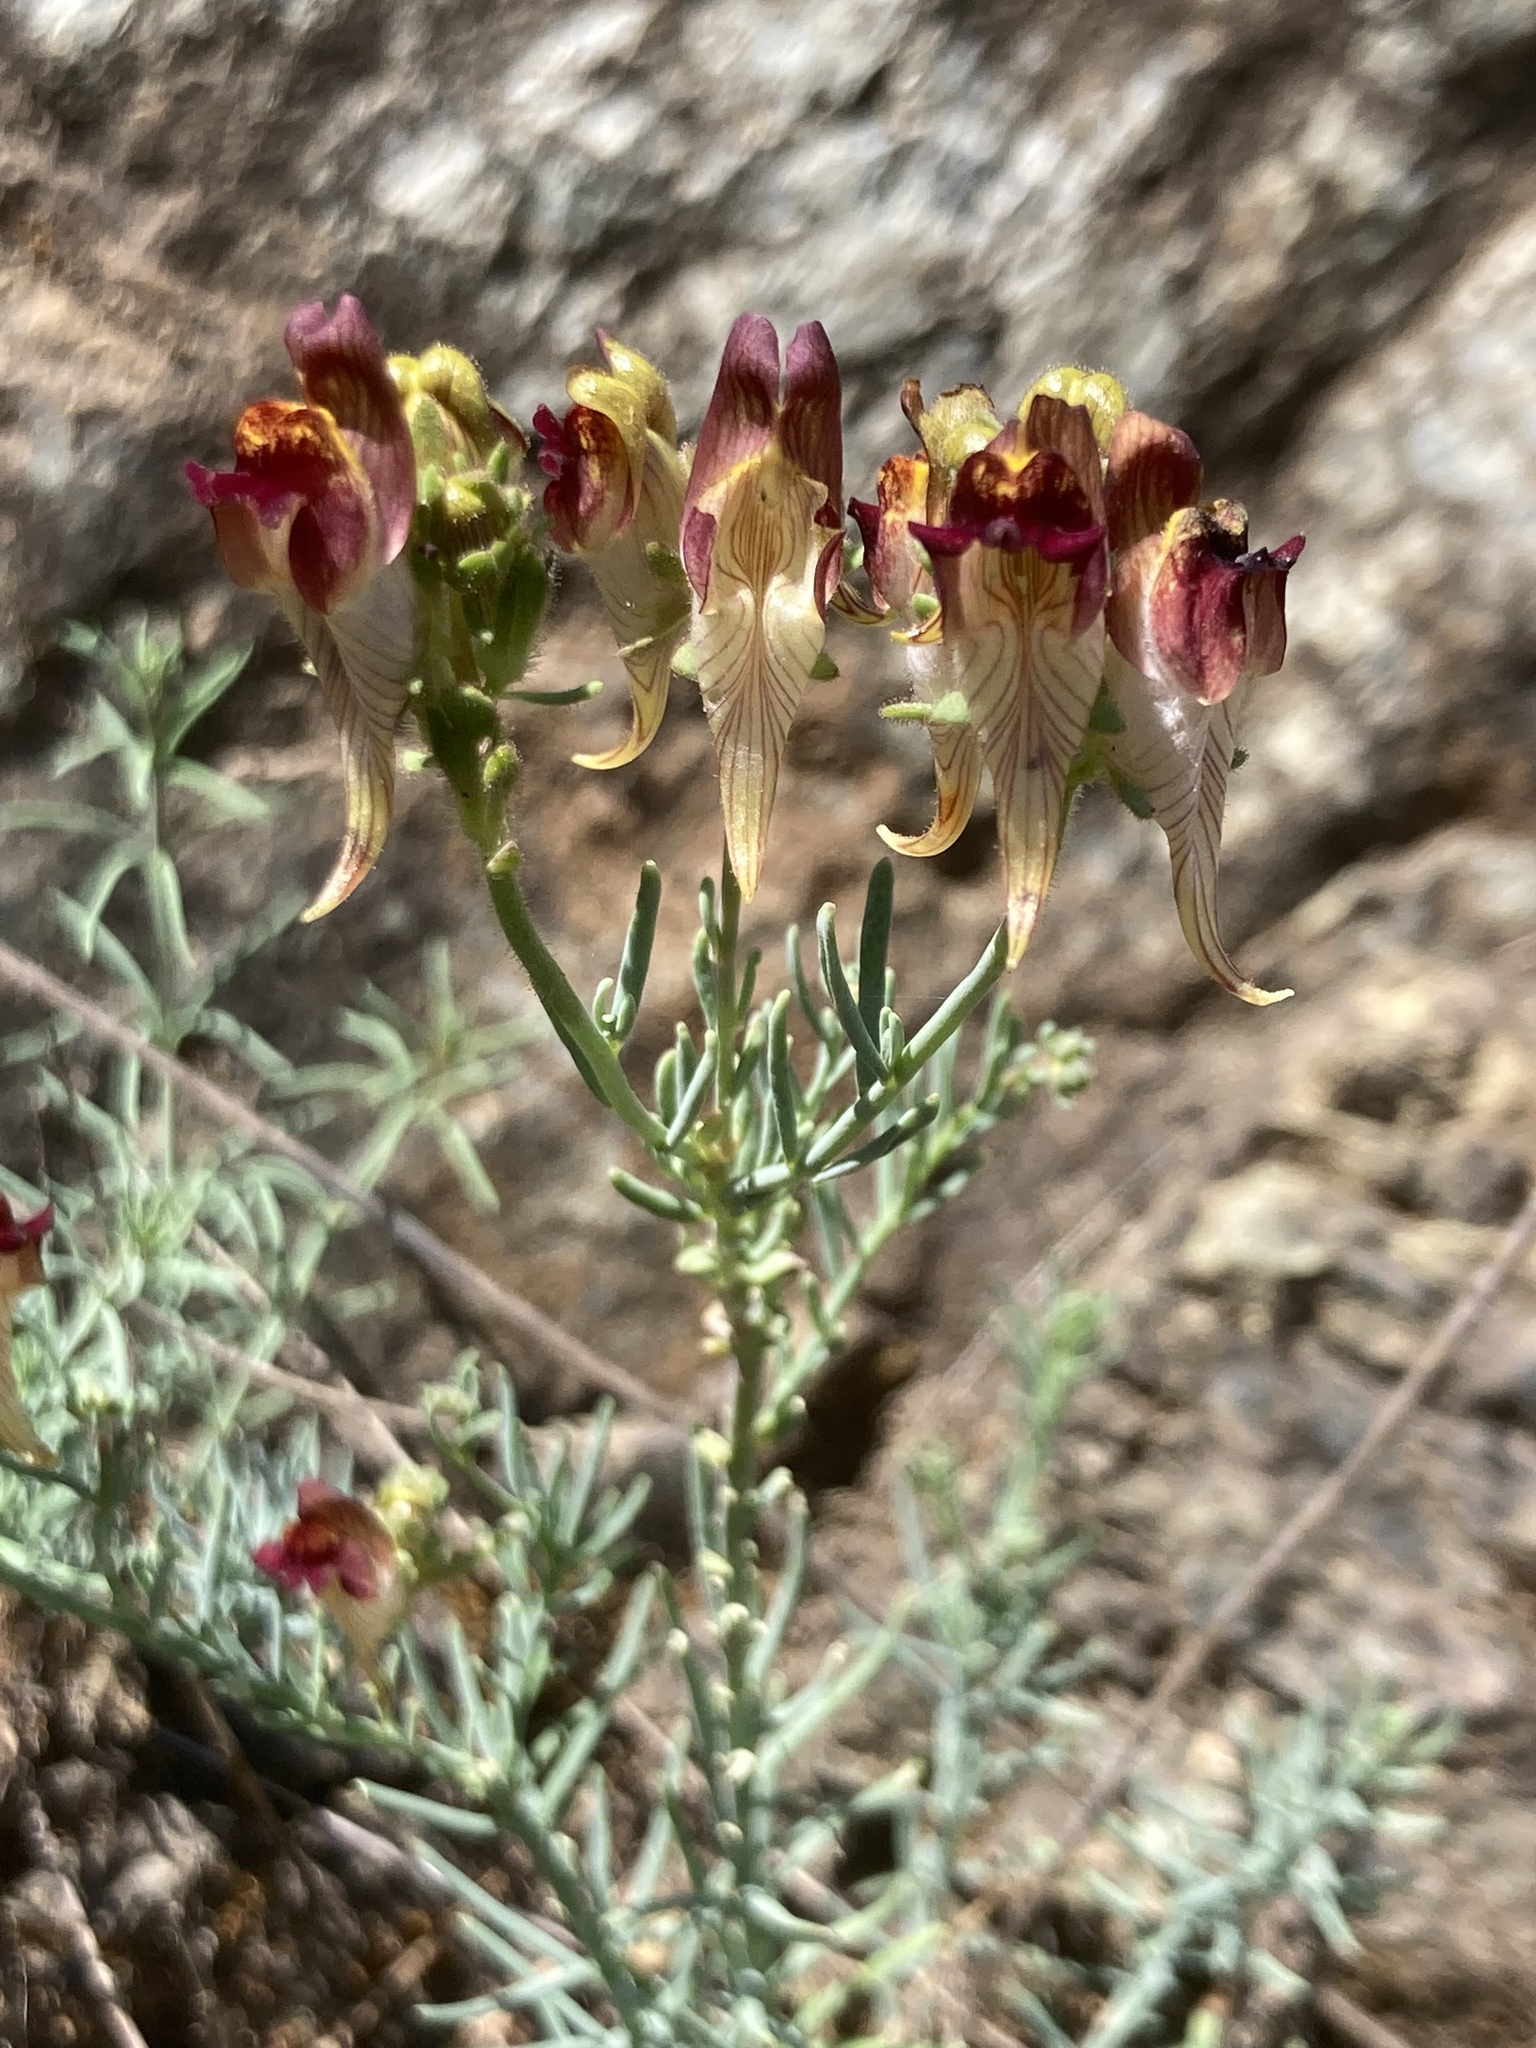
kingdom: Plantae
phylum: Tracheophyta
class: Magnoliopsida
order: Lamiales
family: Plantaginaceae
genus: Linaria
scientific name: Linaria aeruginea
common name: Roadside toadflax
